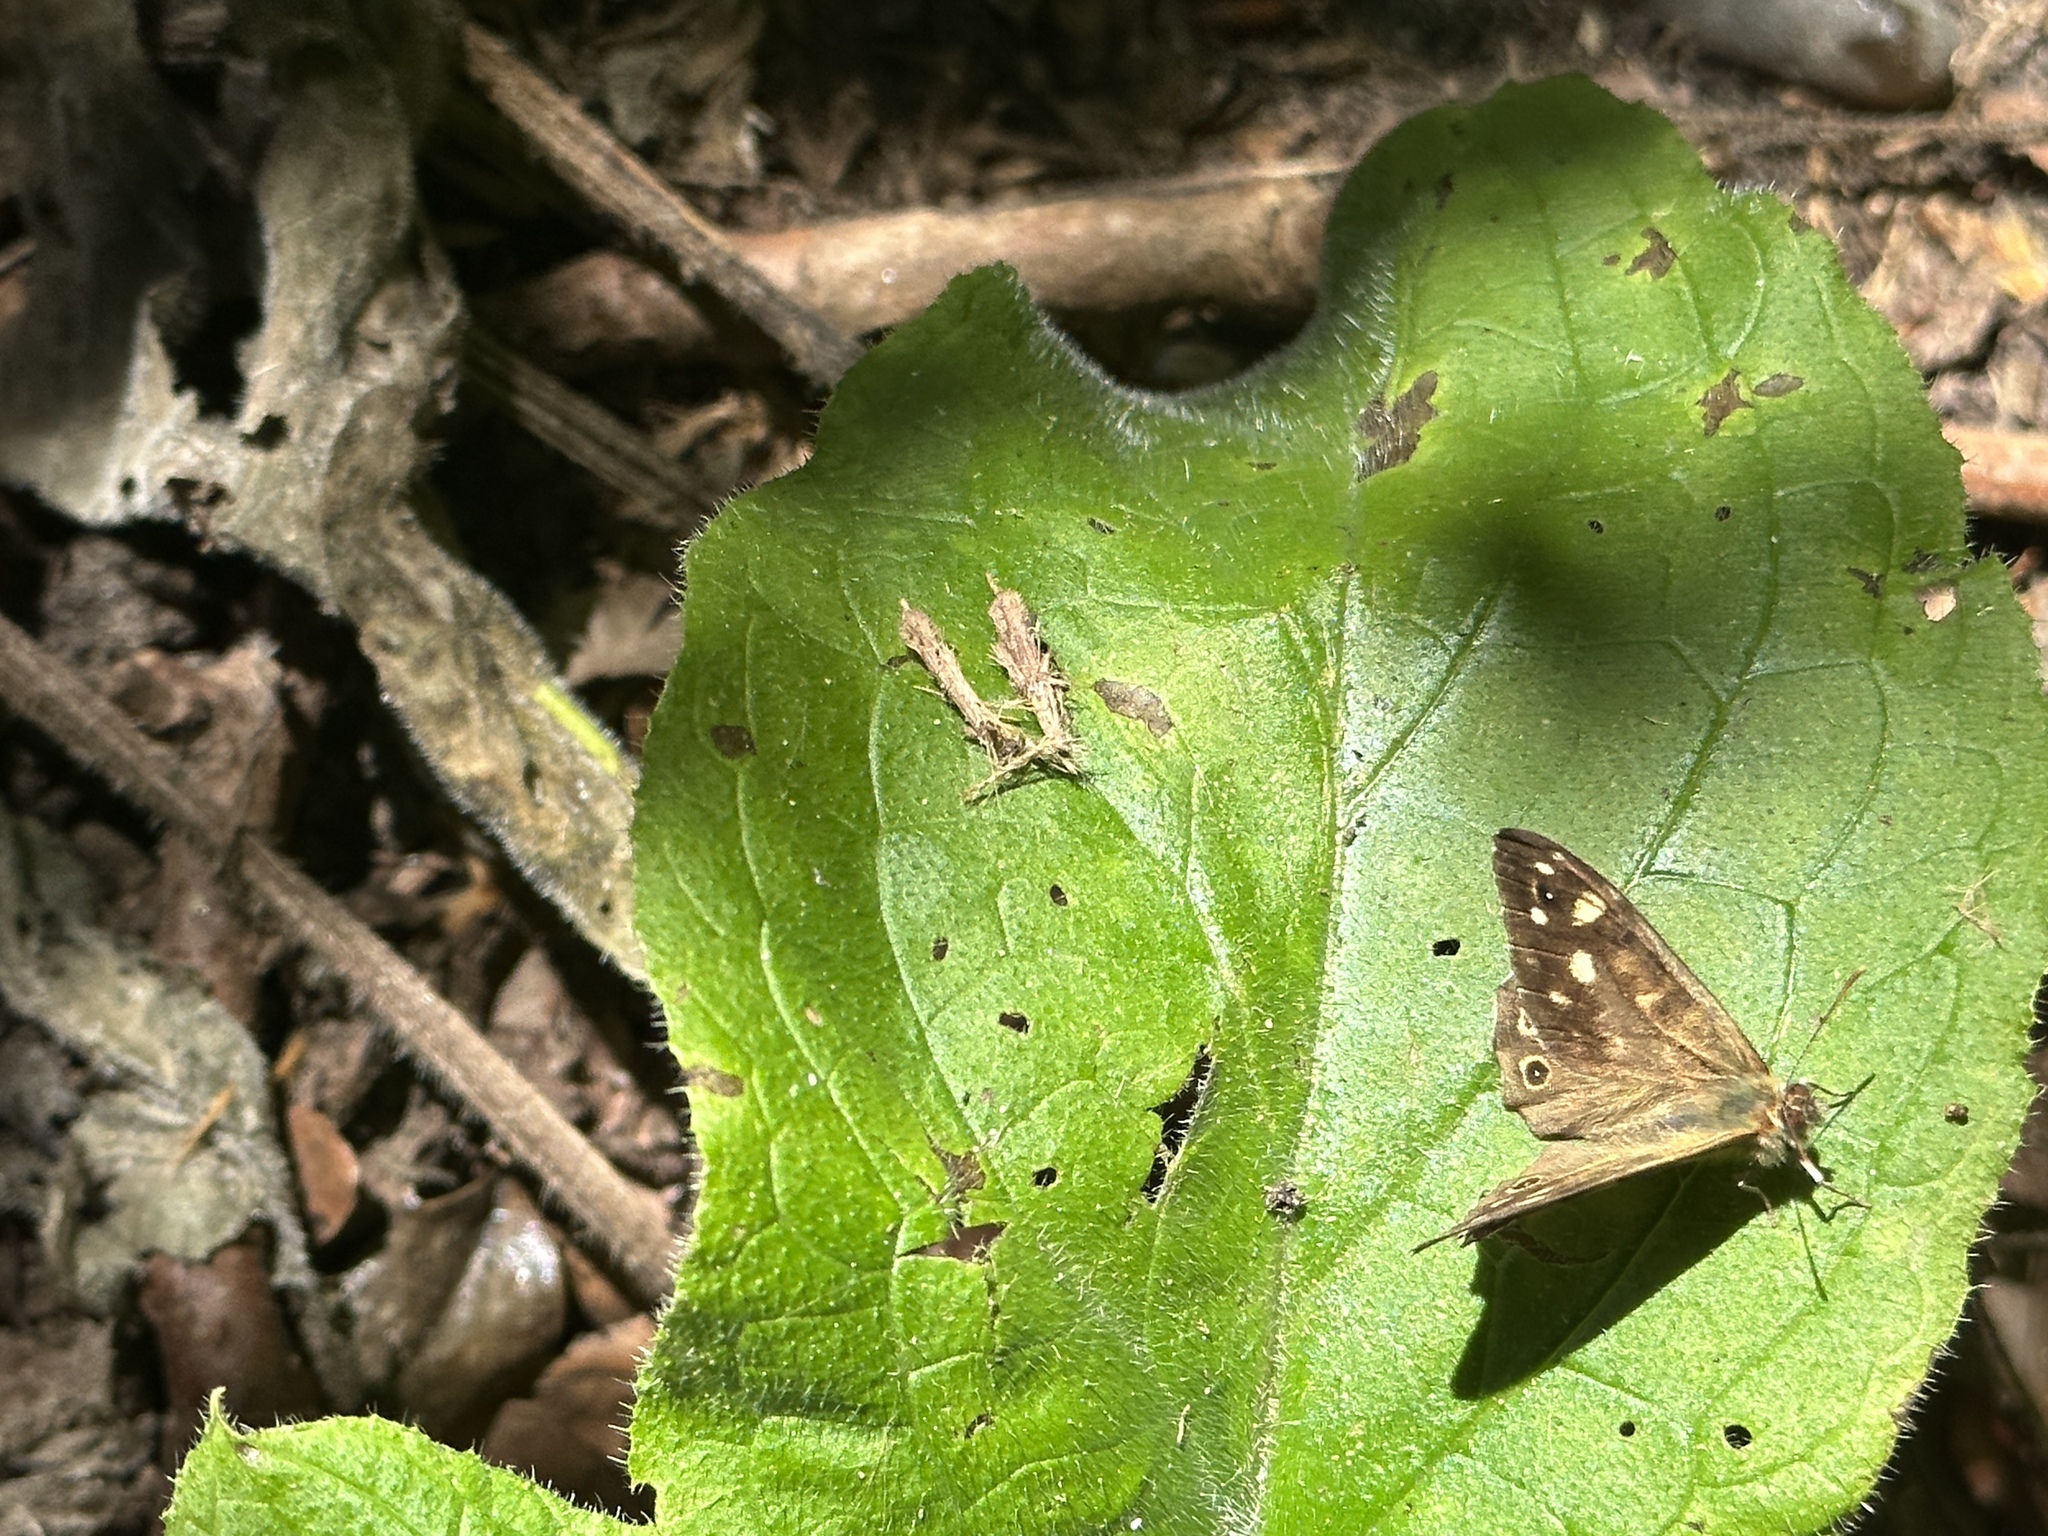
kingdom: Animalia
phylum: Arthropoda
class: Insecta
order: Lepidoptera
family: Nymphalidae
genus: Pararge
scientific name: Pararge aegeria
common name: Speckled wood
